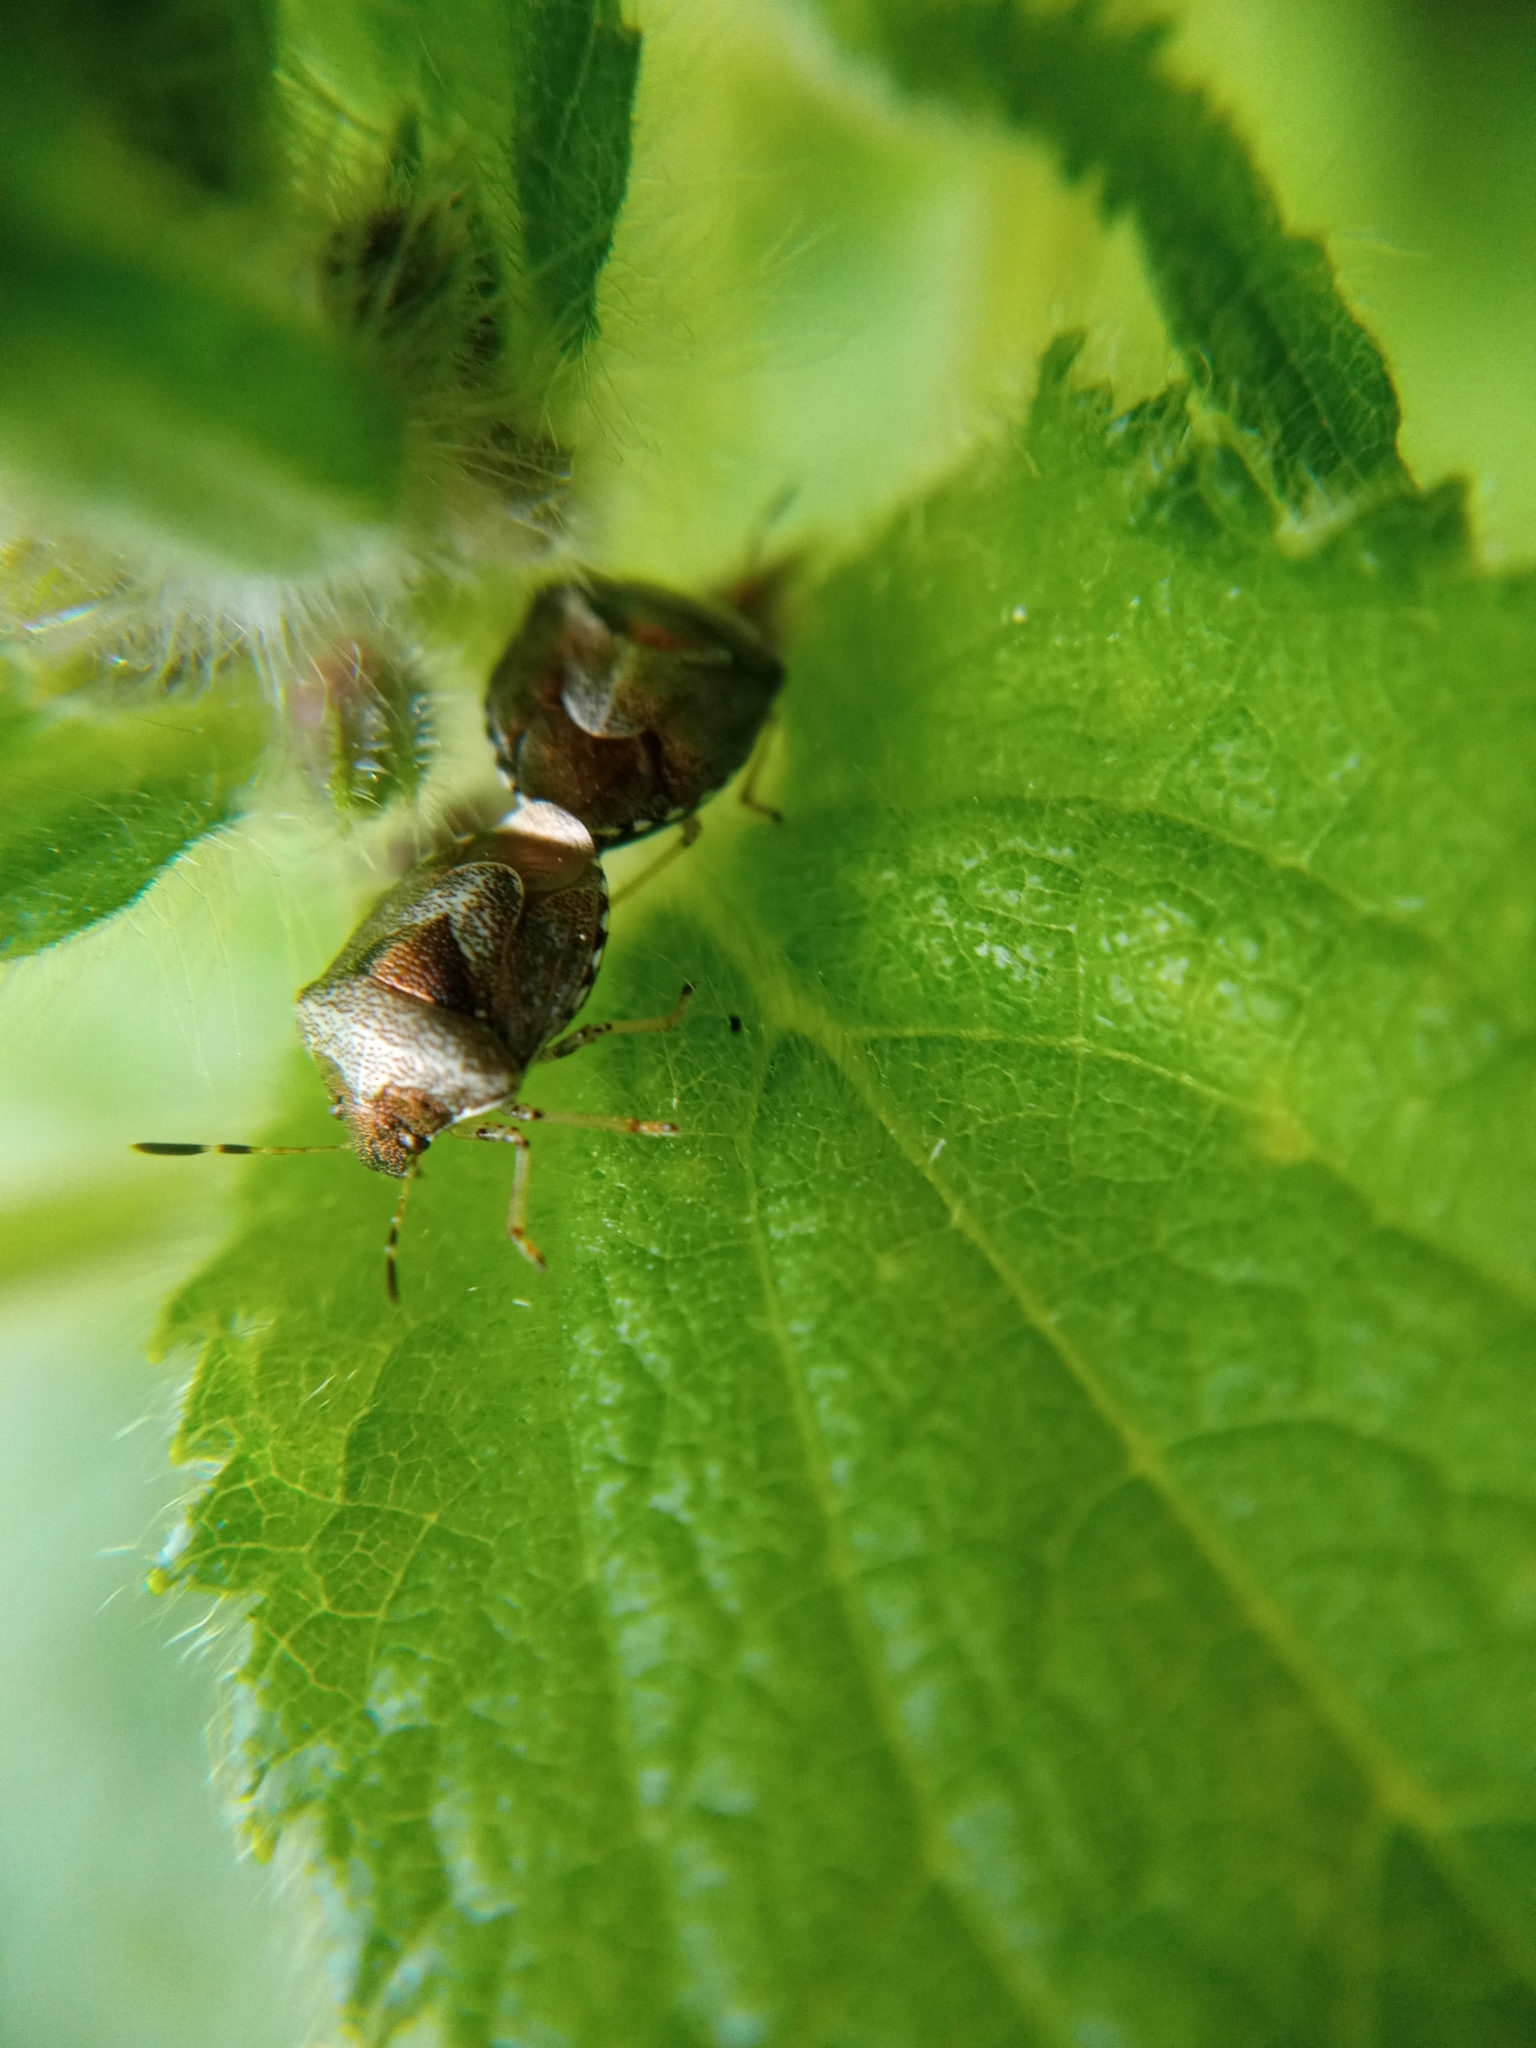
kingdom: Animalia
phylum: Arthropoda
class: Insecta
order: Hemiptera
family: Pentatomidae
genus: Eysarcoris
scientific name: Eysarcoris venustissimus
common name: Woundwort shieldbug
